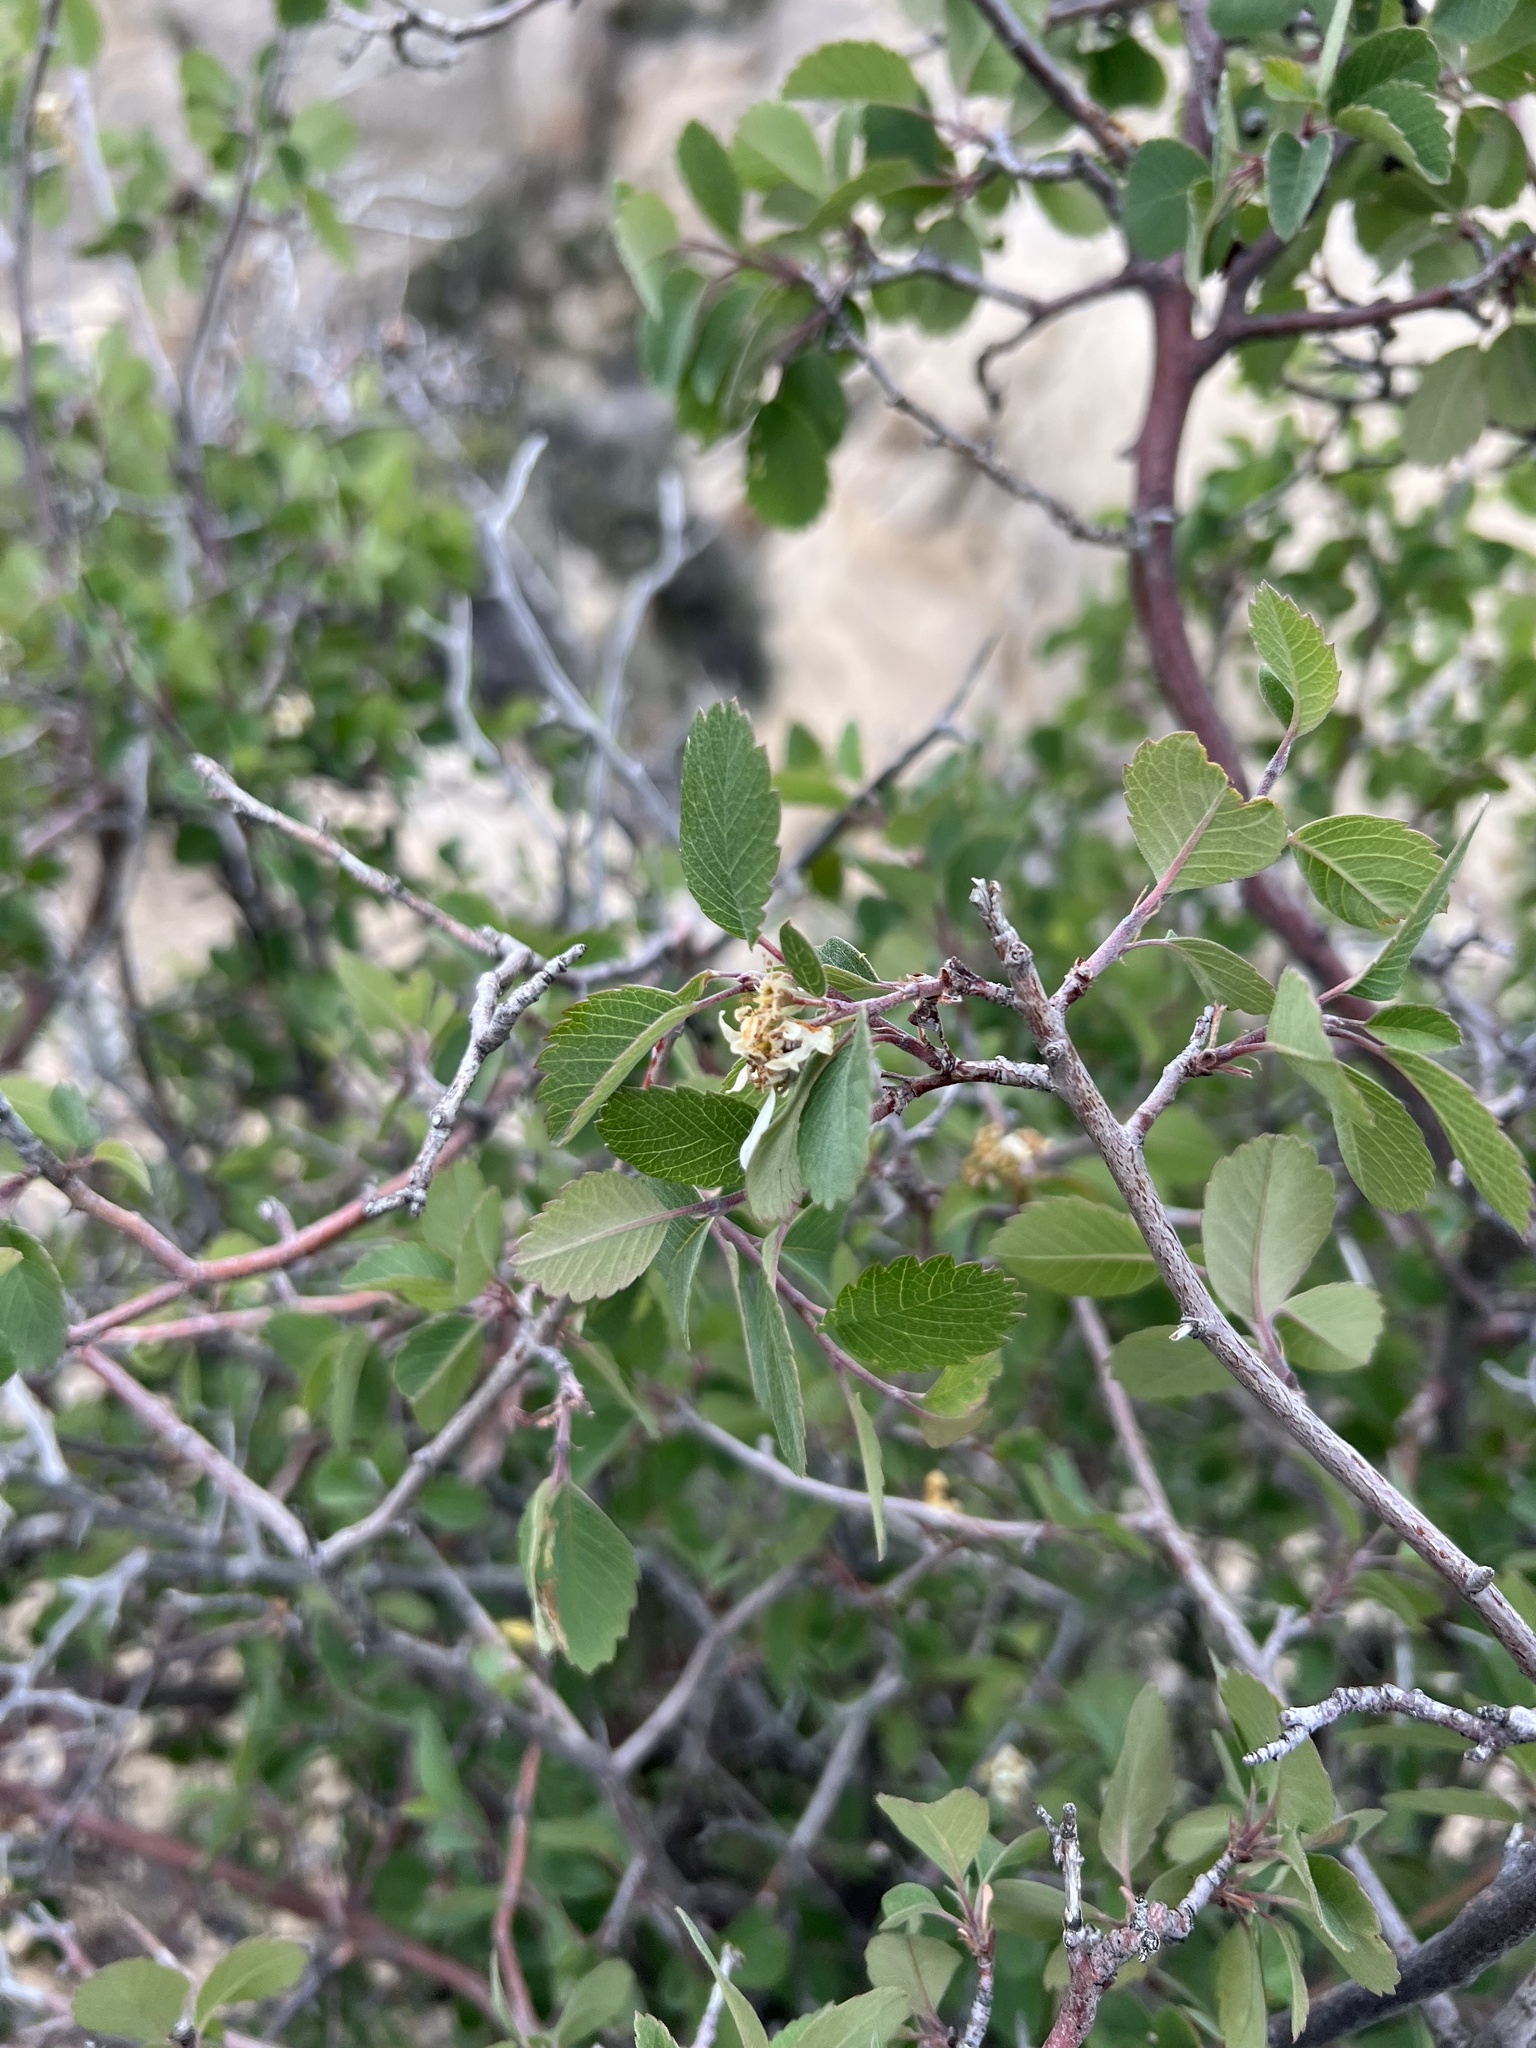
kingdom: Plantae
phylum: Tracheophyta
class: Magnoliopsida
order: Rosales
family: Rosaceae
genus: Amelanchier
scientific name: Amelanchier utahensis
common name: Utah serviceberry
